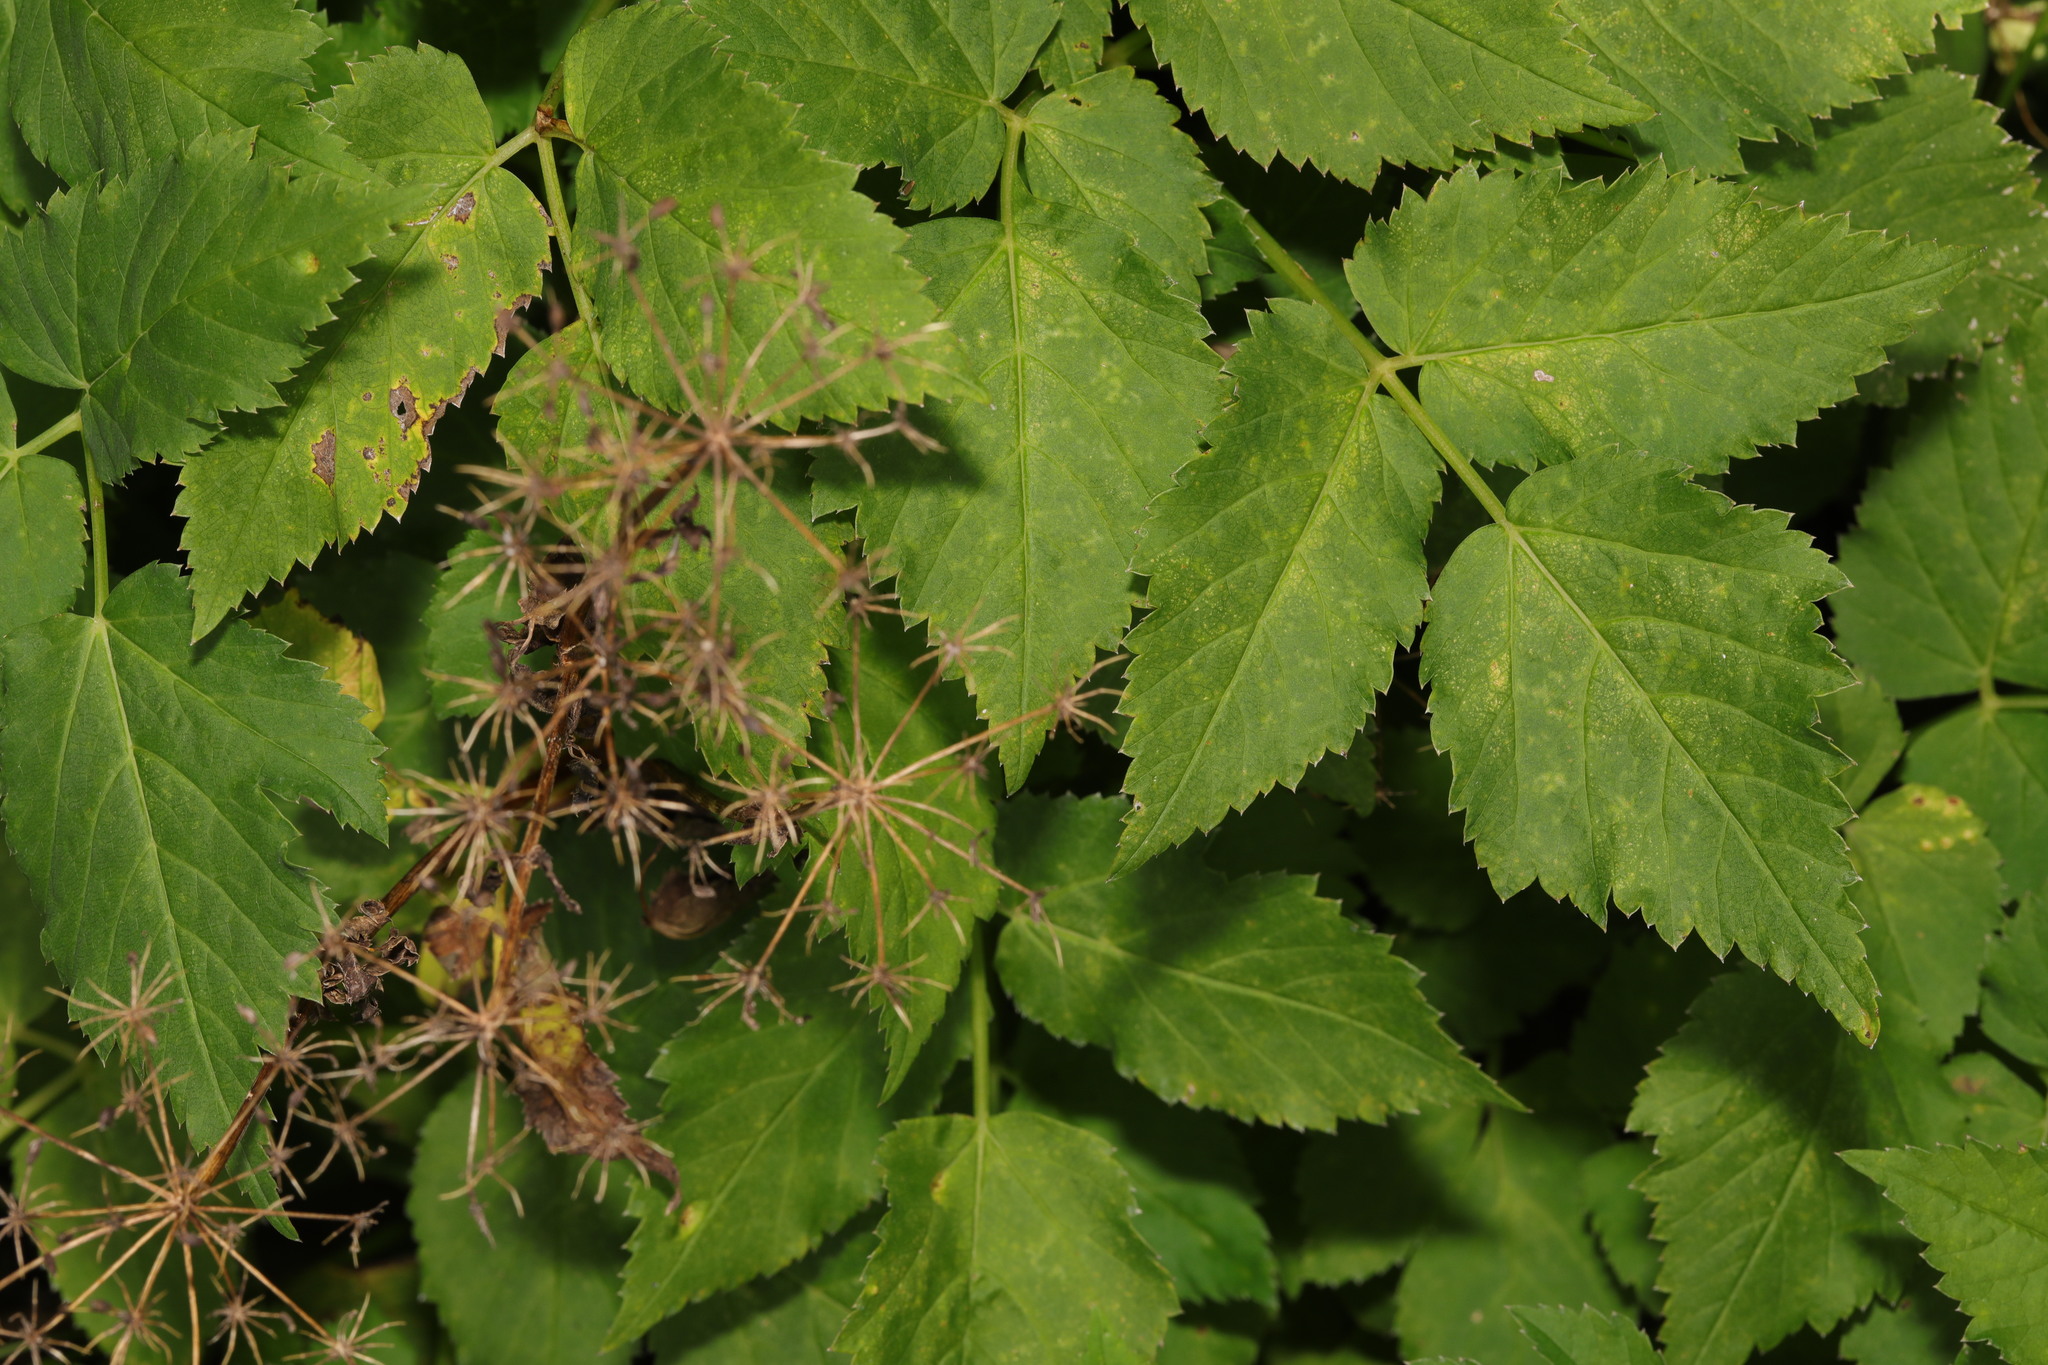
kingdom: Plantae
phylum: Tracheophyta
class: Magnoliopsida
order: Apiales
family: Apiaceae
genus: Aegopodium
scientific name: Aegopodium podagraria
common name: Ground-elder
